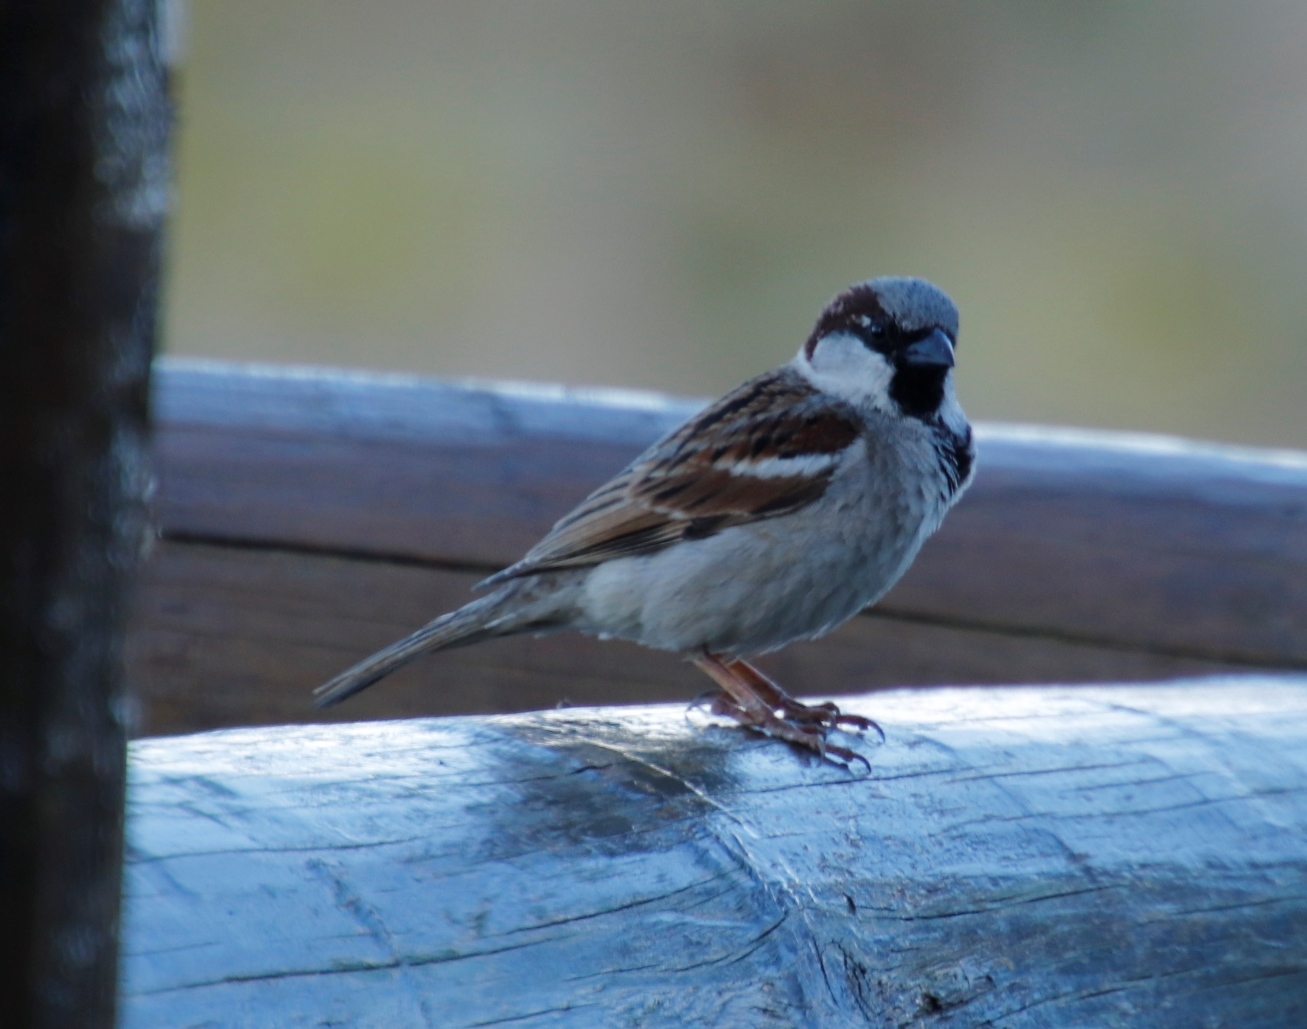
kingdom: Animalia
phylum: Chordata
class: Aves
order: Passeriformes
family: Passeridae
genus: Passer
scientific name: Passer domesticus
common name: House sparrow
